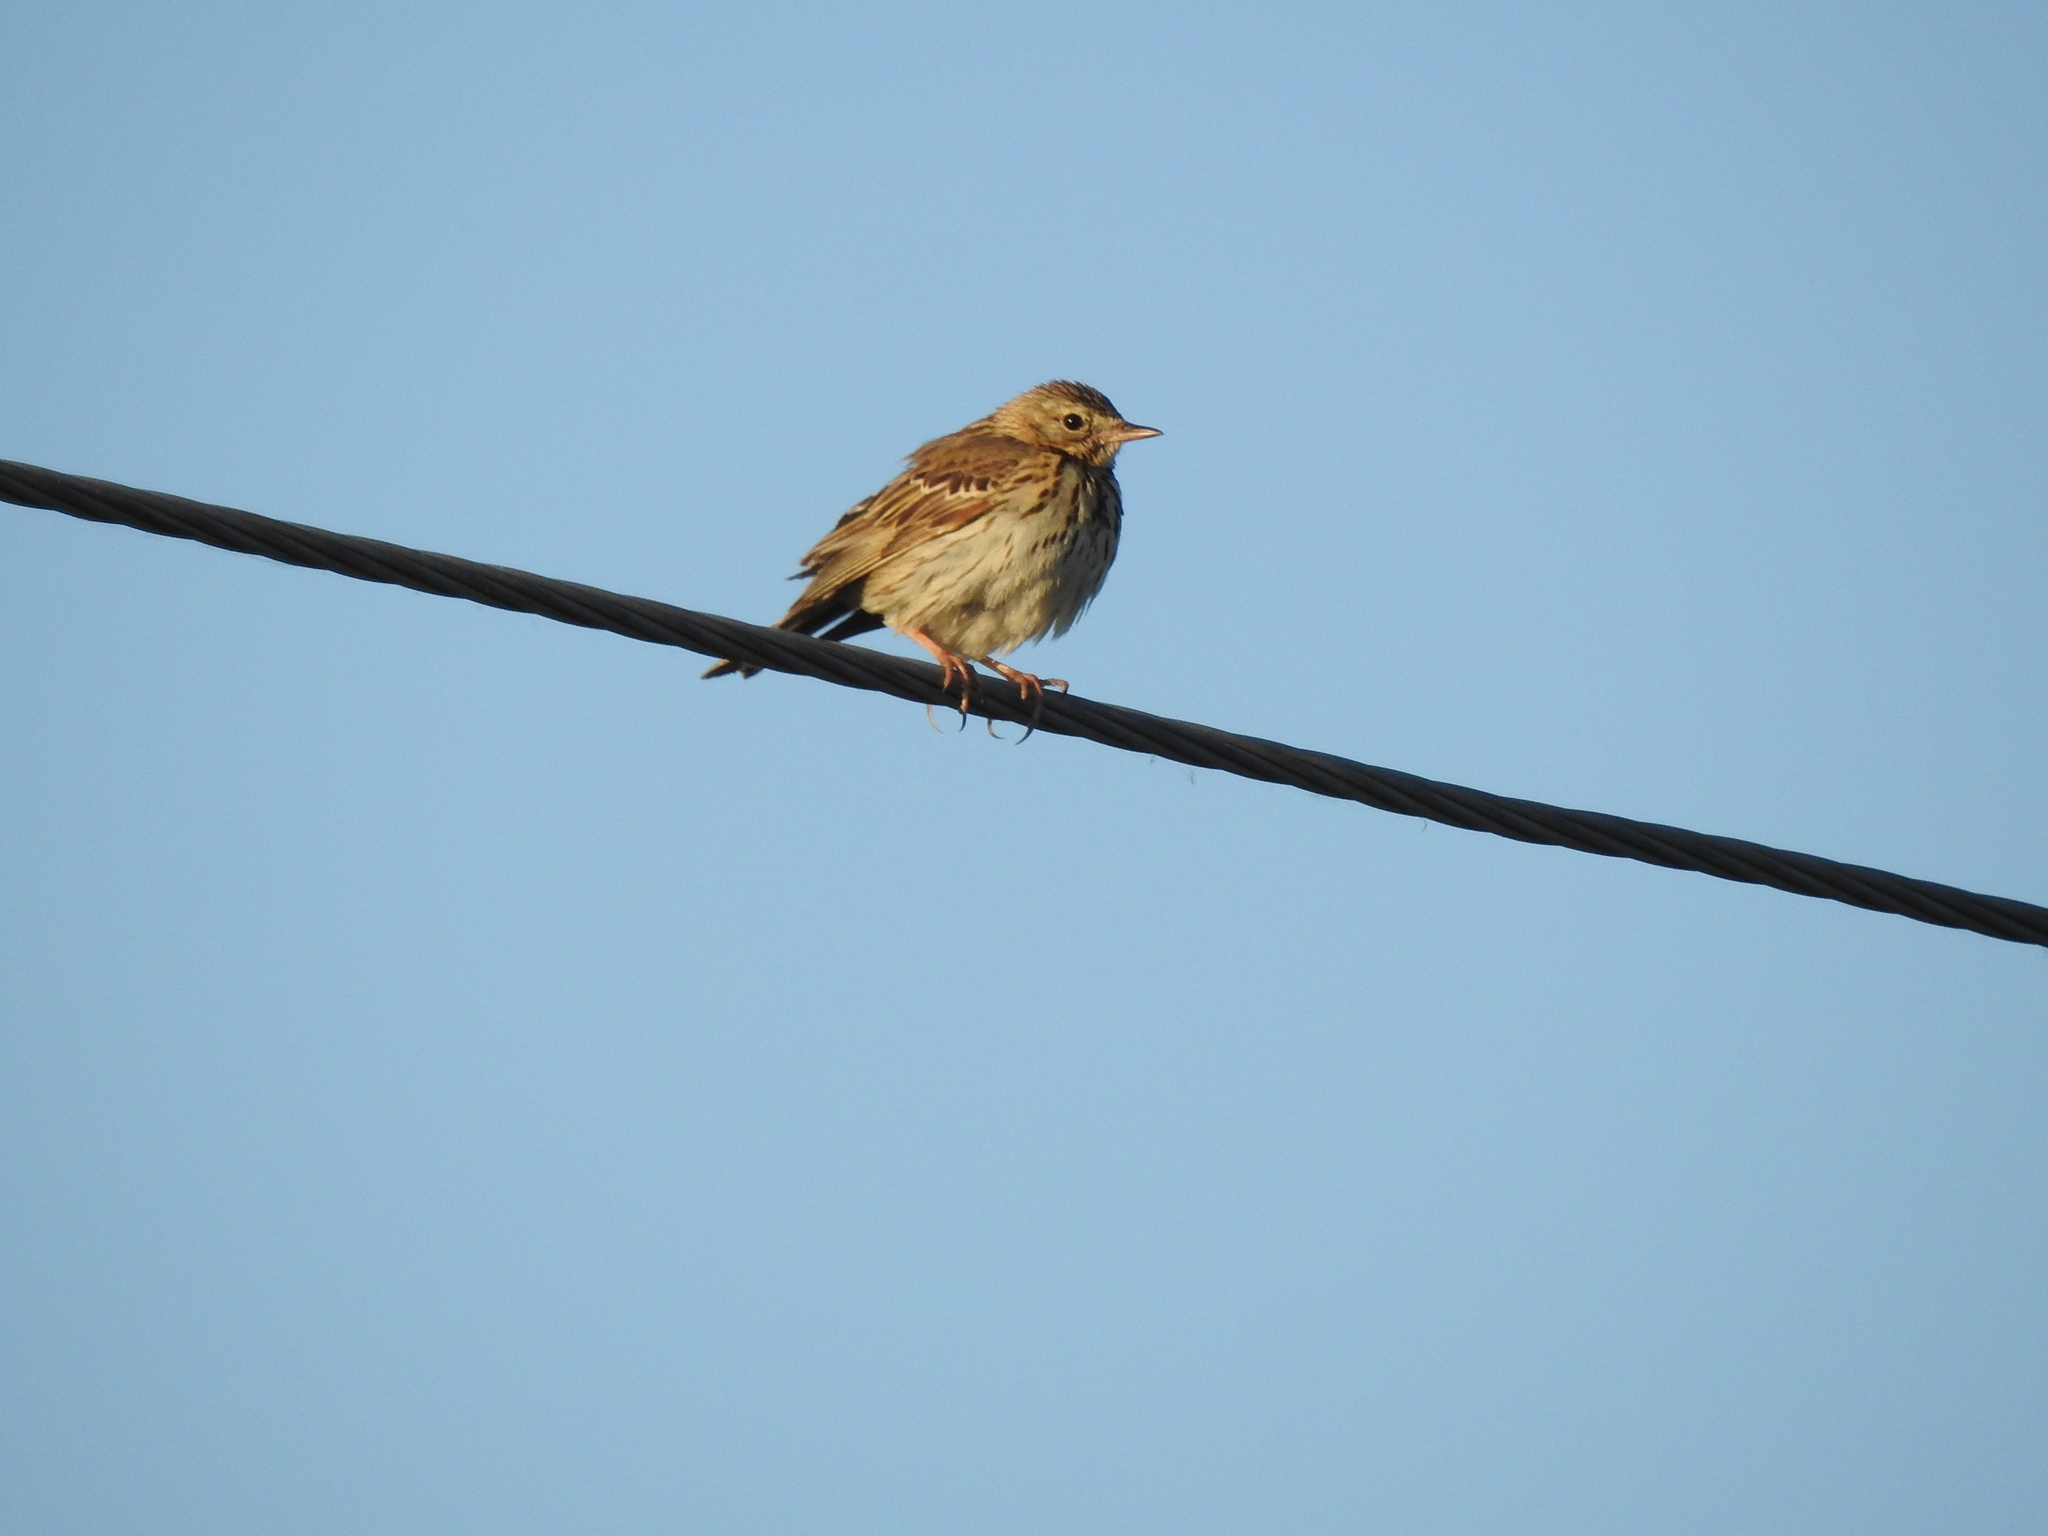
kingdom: Animalia
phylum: Chordata
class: Aves
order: Passeriformes
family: Motacillidae
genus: Anthus
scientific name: Anthus trivialis
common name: Tree pipit
